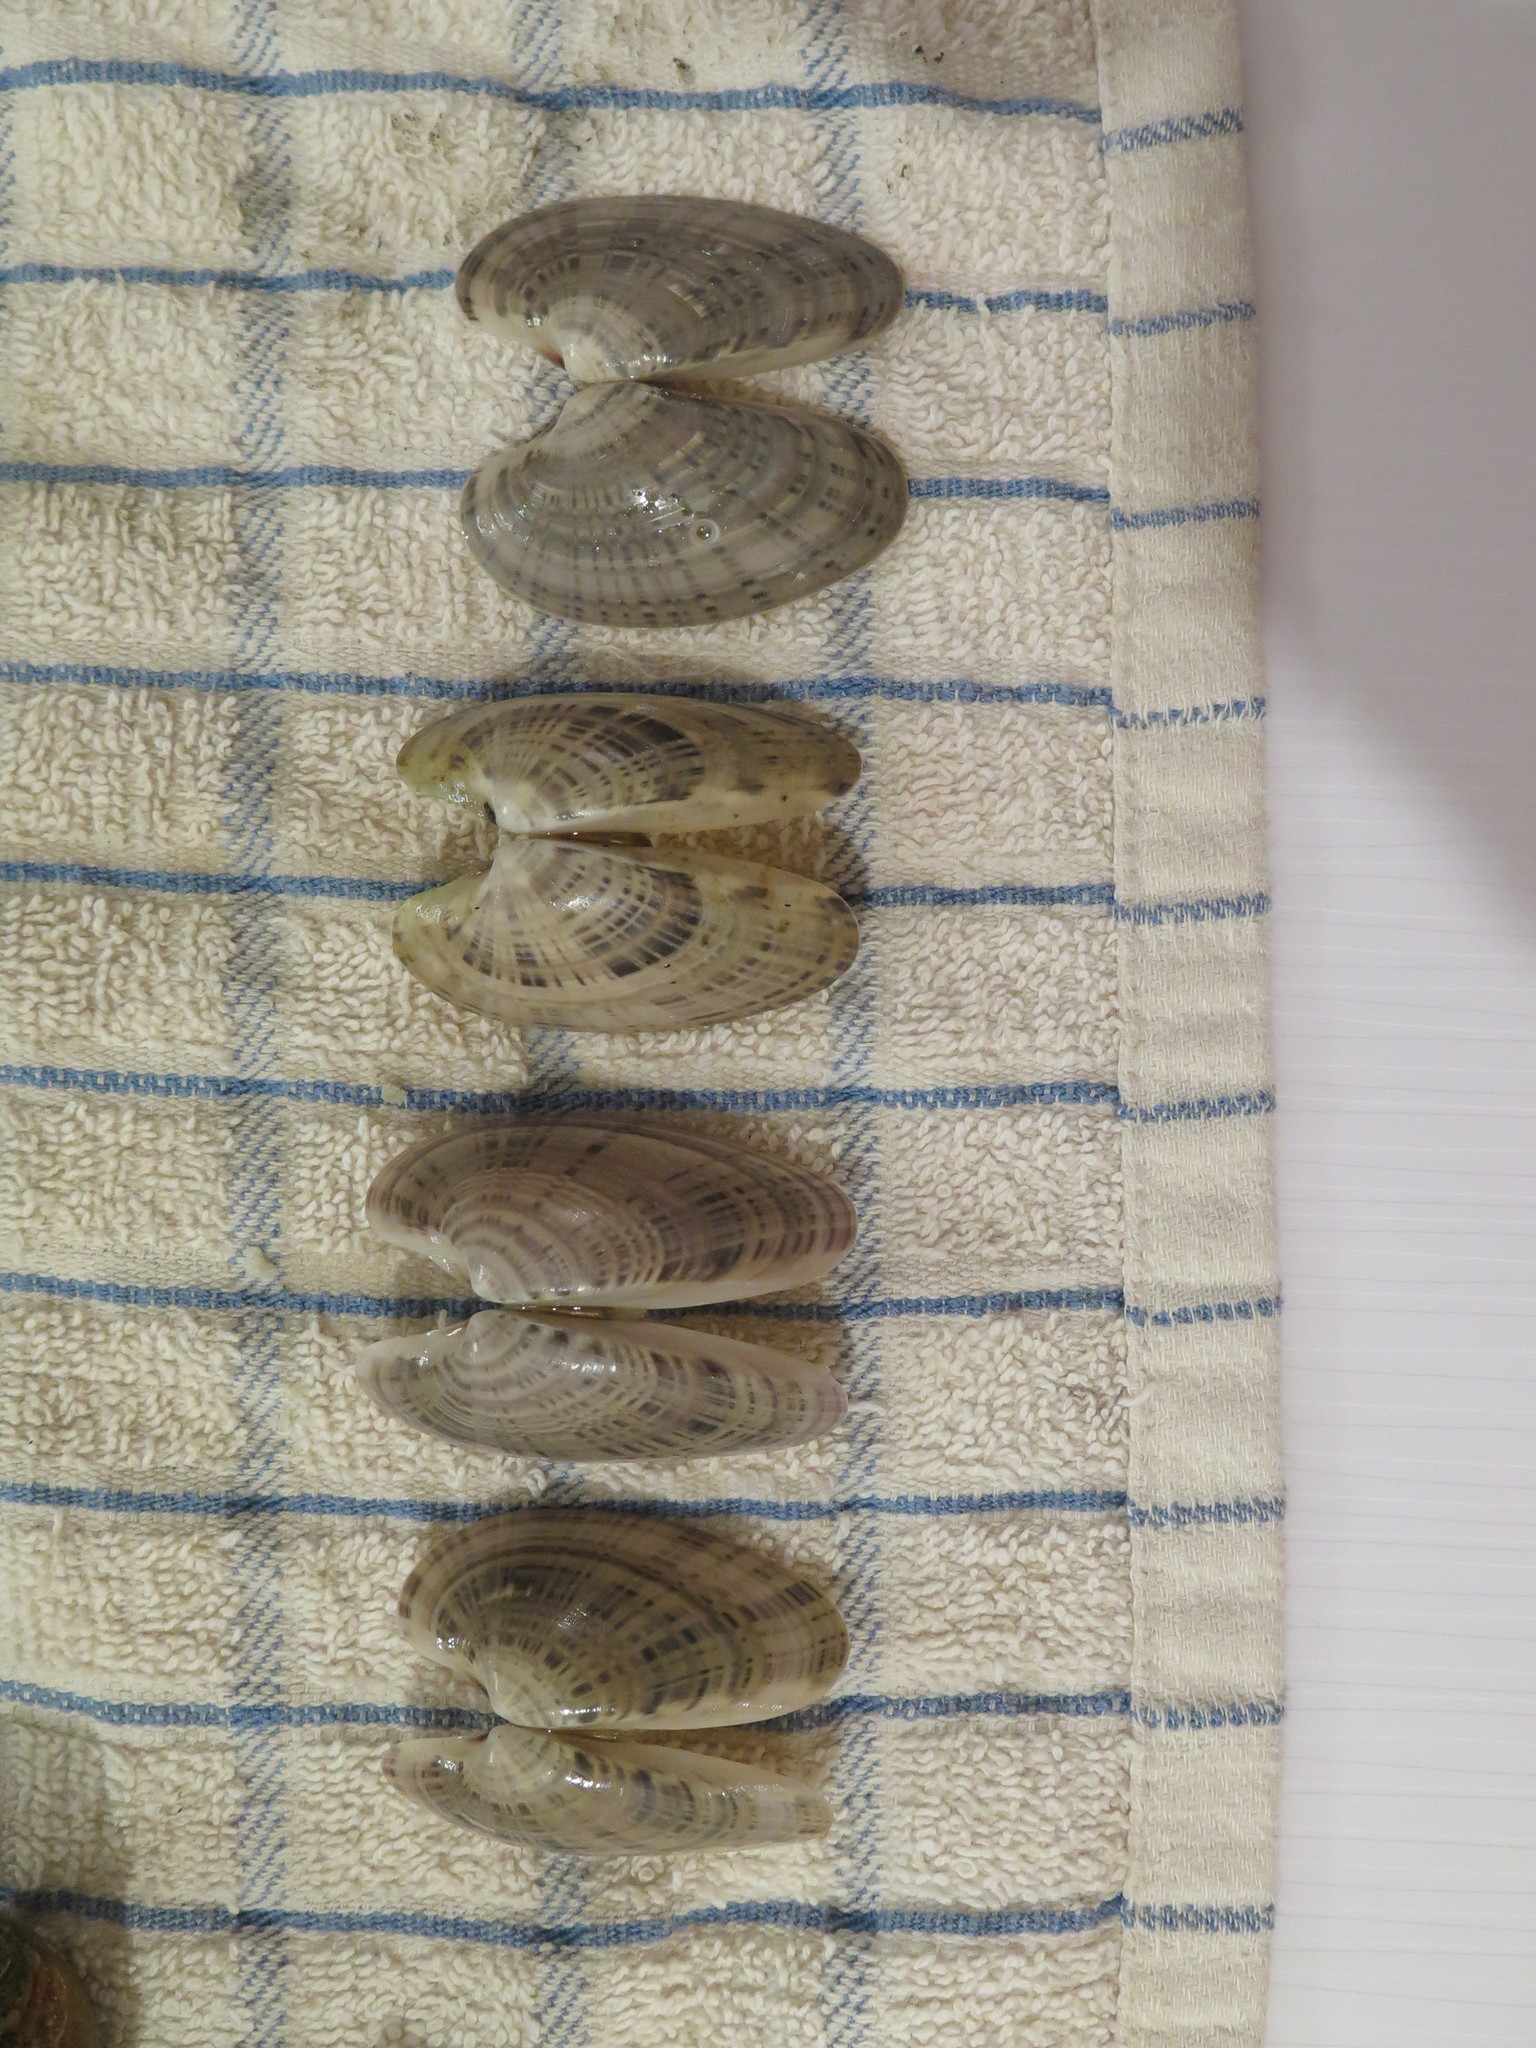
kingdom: Animalia
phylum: Mollusca
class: Bivalvia
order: Venerida
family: Veneridae
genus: Macrocallista
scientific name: Macrocallista nimbosa
